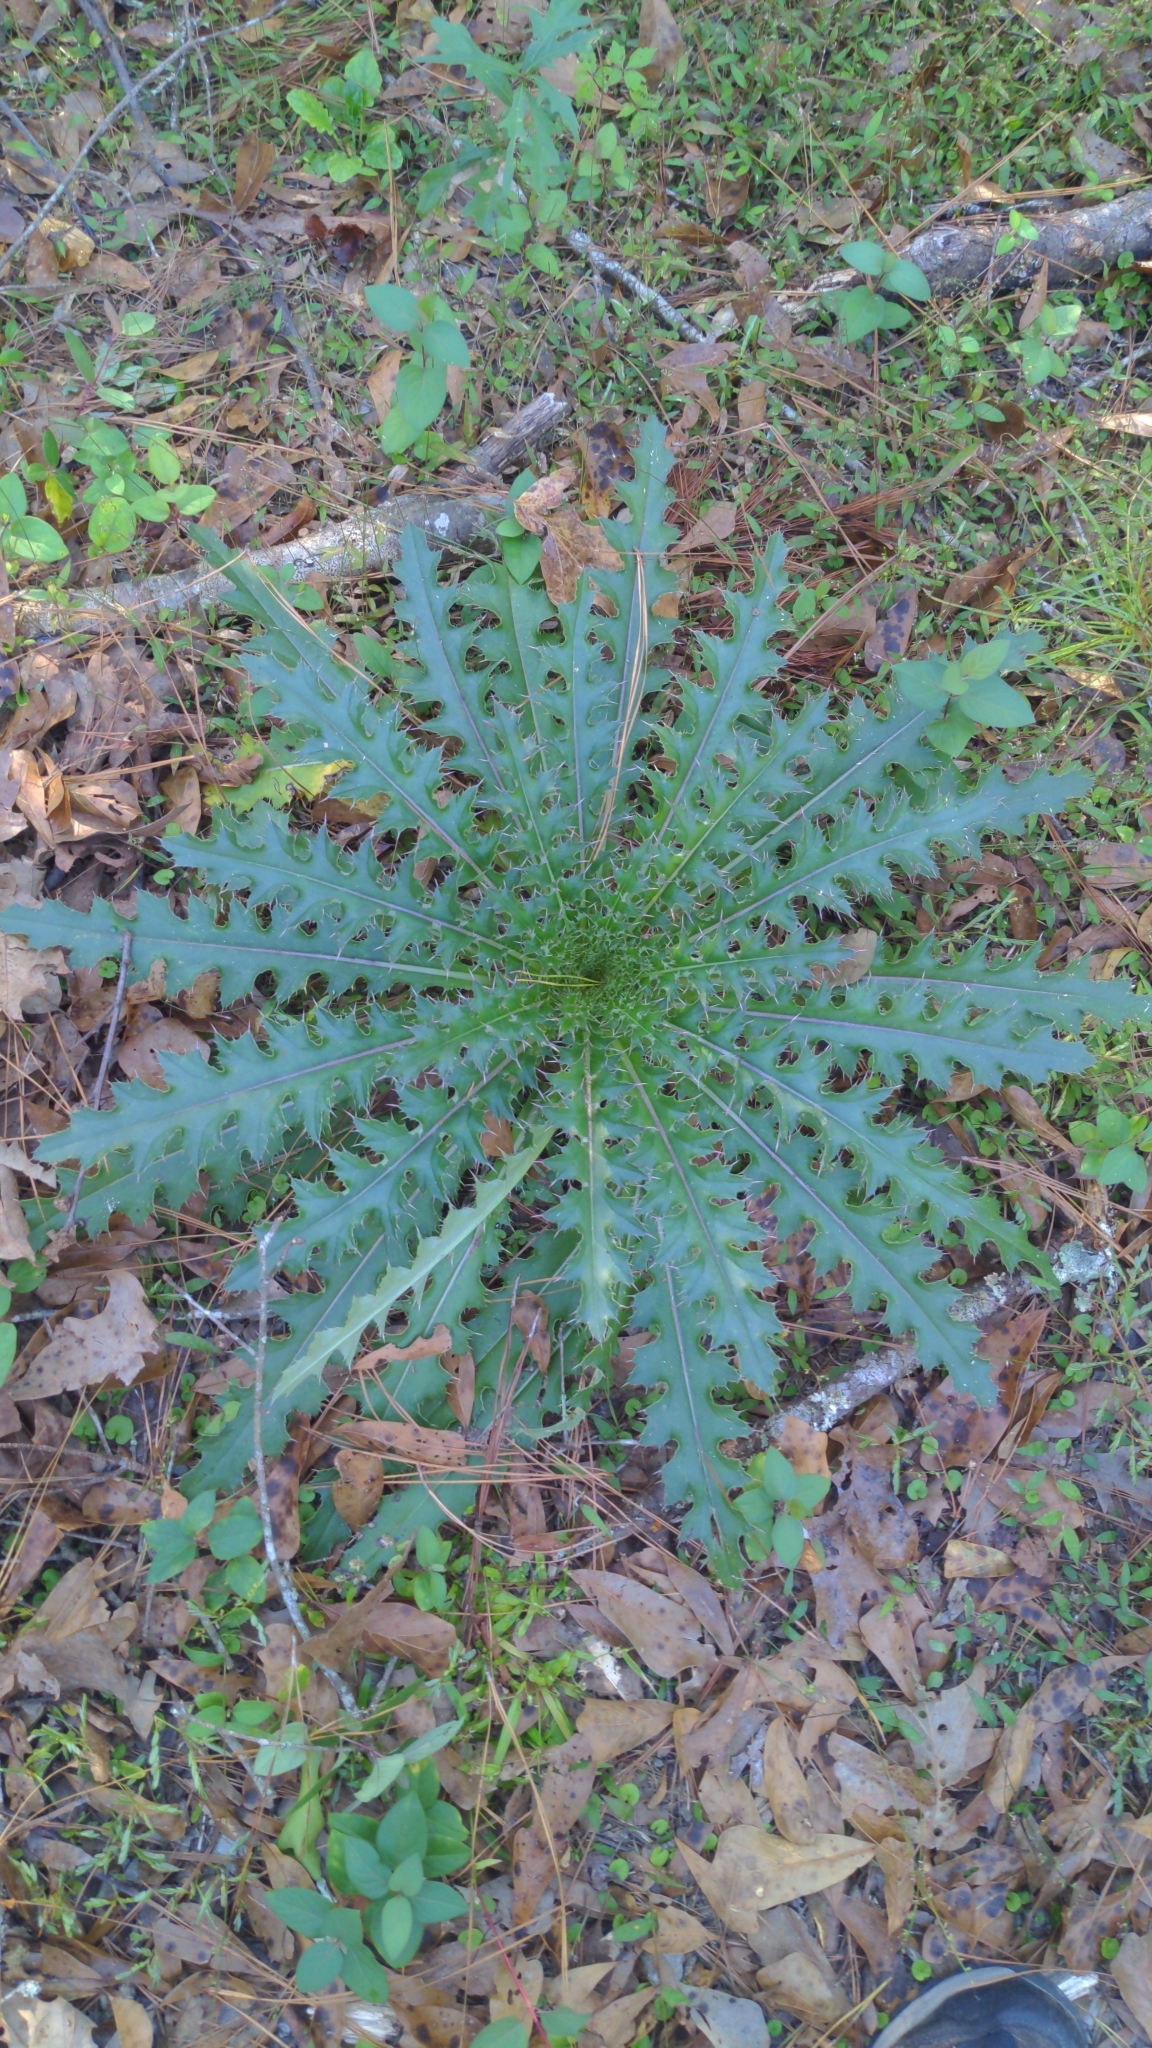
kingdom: Plantae
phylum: Tracheophyta
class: Magnoliopsida
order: Asterales
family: Asteraceae
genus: Cirsium
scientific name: Cirsium horridulum
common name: Bristly thistle
